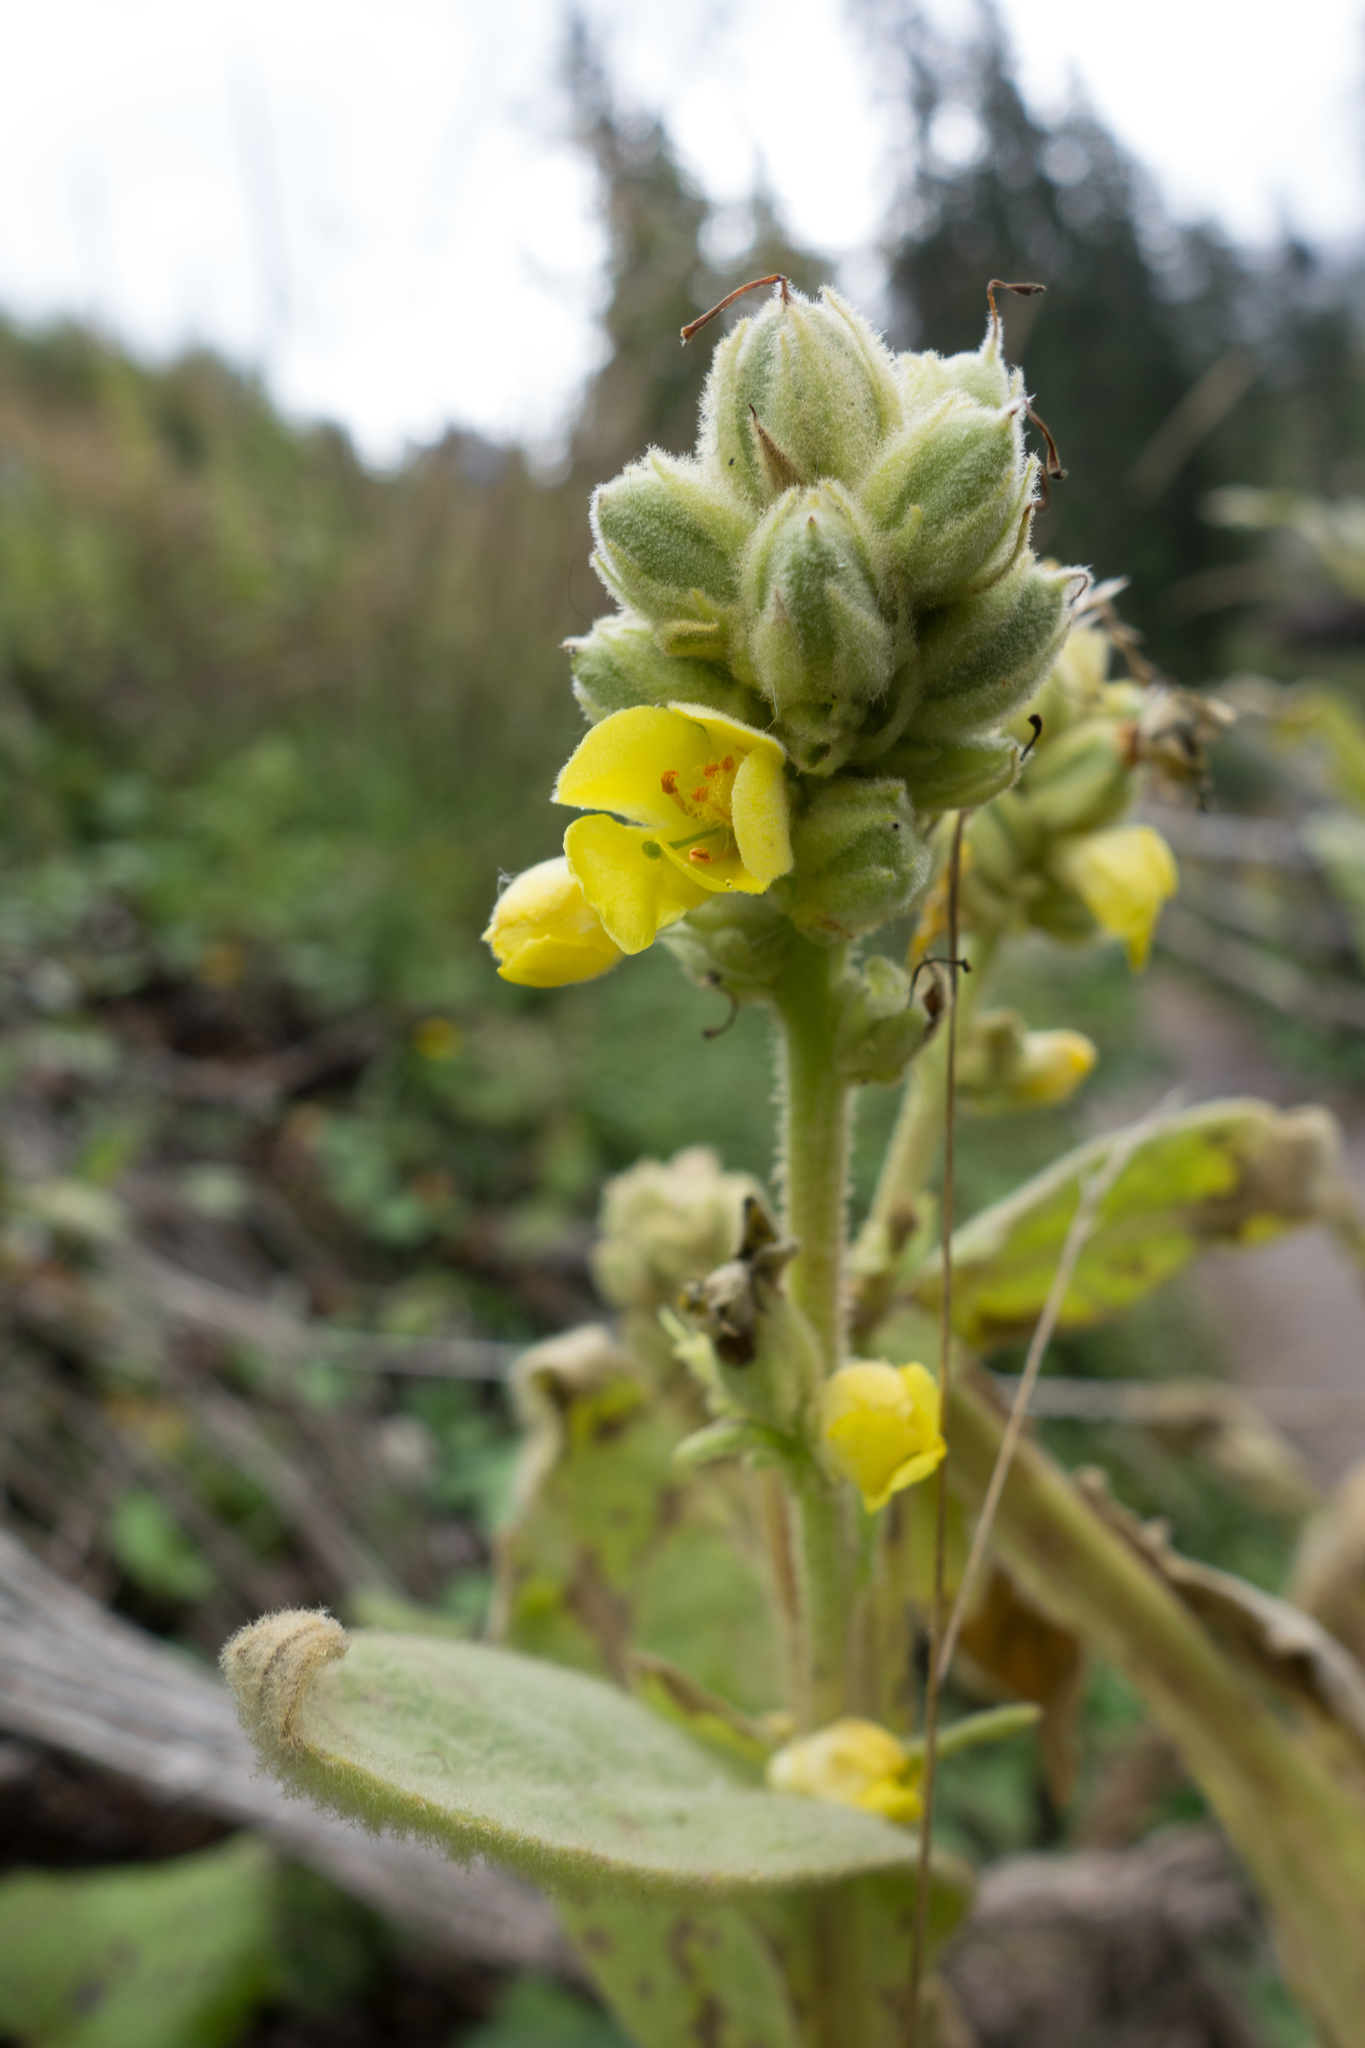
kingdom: Plantae
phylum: Tracheophyta
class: Magnoliopsida
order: Lamiales
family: Scrophulariaceae
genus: Verbascum
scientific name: Verbascum thapsus
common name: Common mullein
